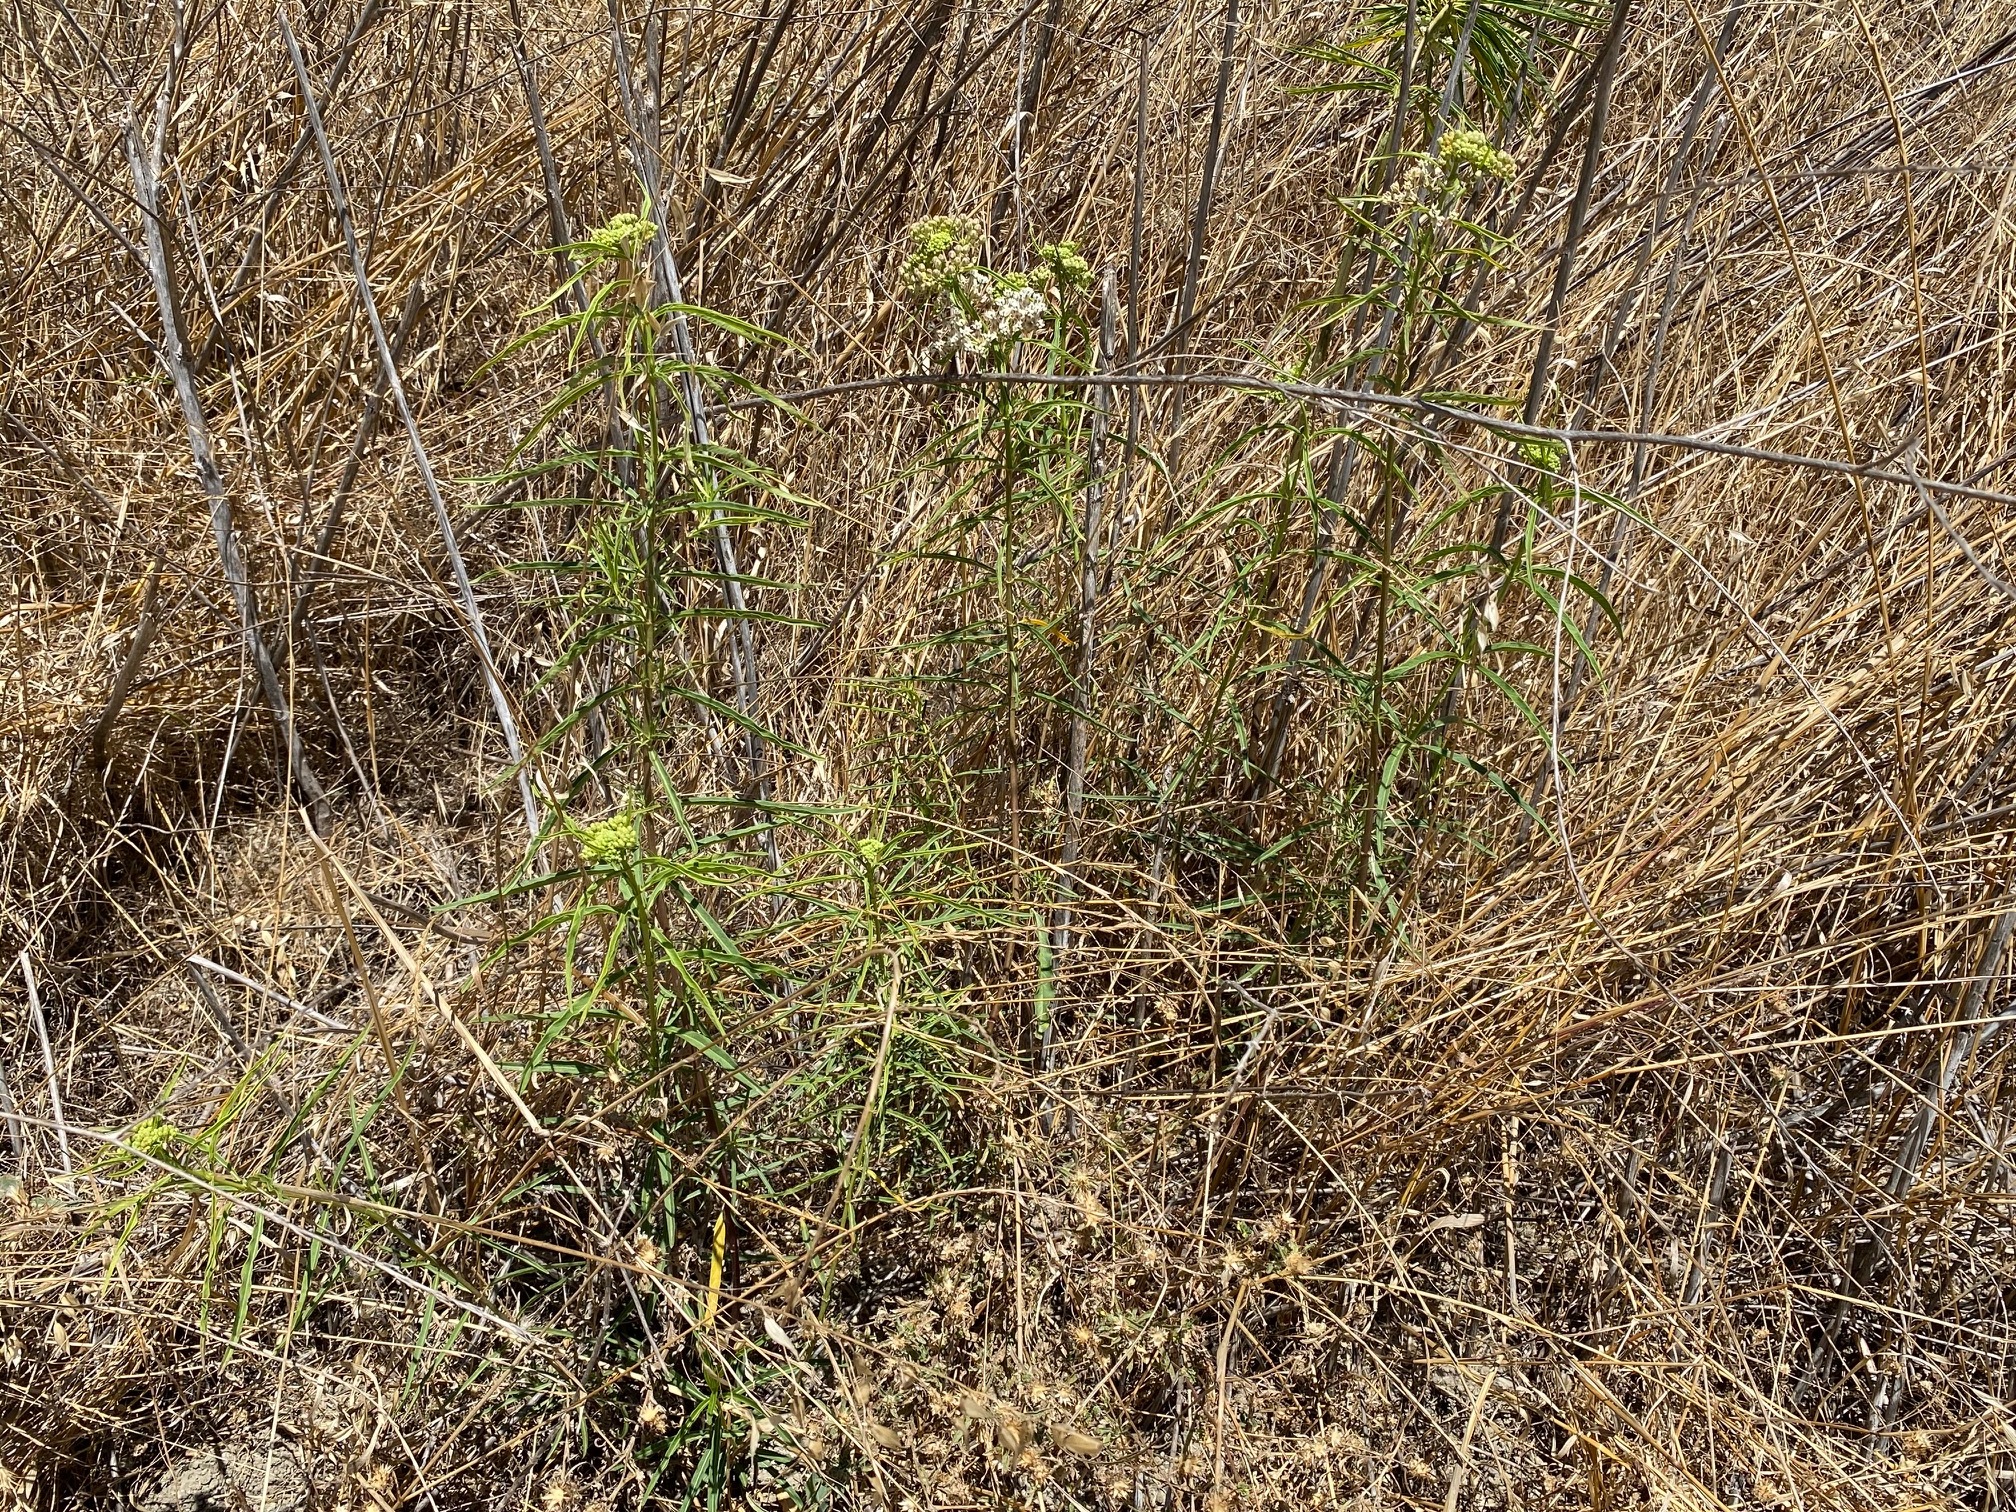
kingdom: Plantae
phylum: Tracheophyta
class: Magnoliopsida
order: Gentianales
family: Apocynaceae
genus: Asclepias
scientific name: Asclepias fascicularis
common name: Mexican milkweed
